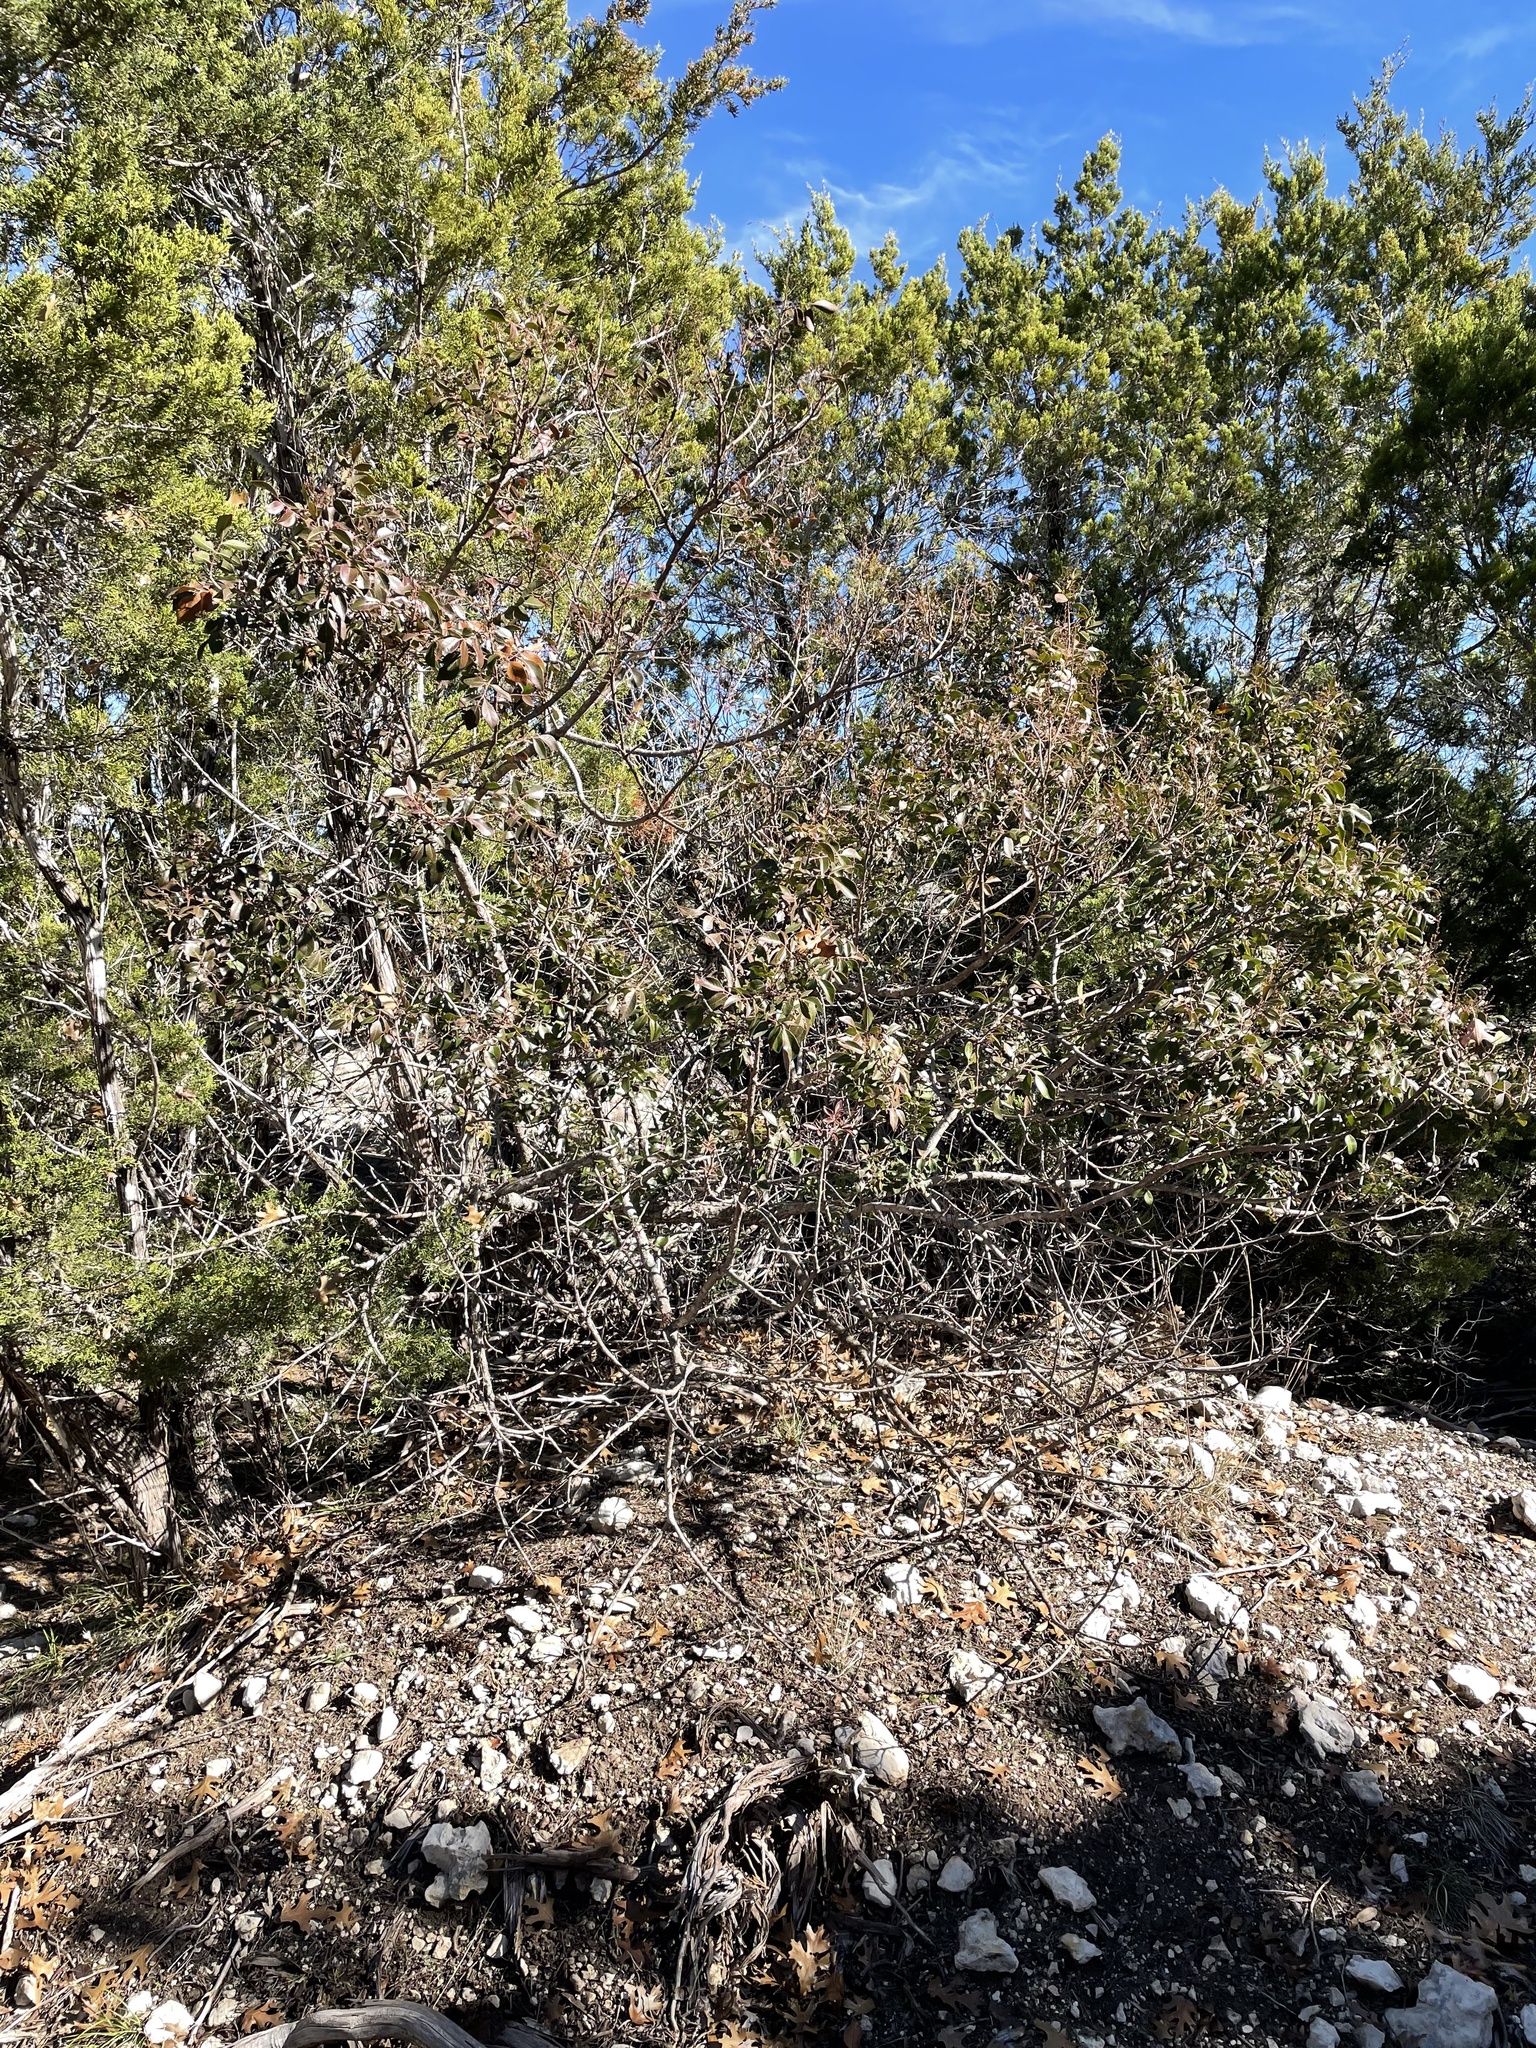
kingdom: Plantae
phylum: Tracheophyta
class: Magnoliopsida
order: Sapindales
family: Anacardiaceae
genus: Rhus
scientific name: Rhus virens
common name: Evergreen sumac
